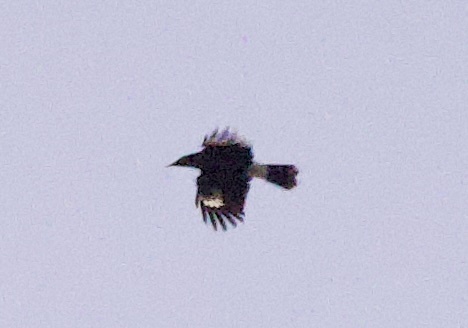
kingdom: Animalia
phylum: Chordata
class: Aves
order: Passeriformes
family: Cracticidae
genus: Strepera
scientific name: Strepera graculina
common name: Pied currawong
